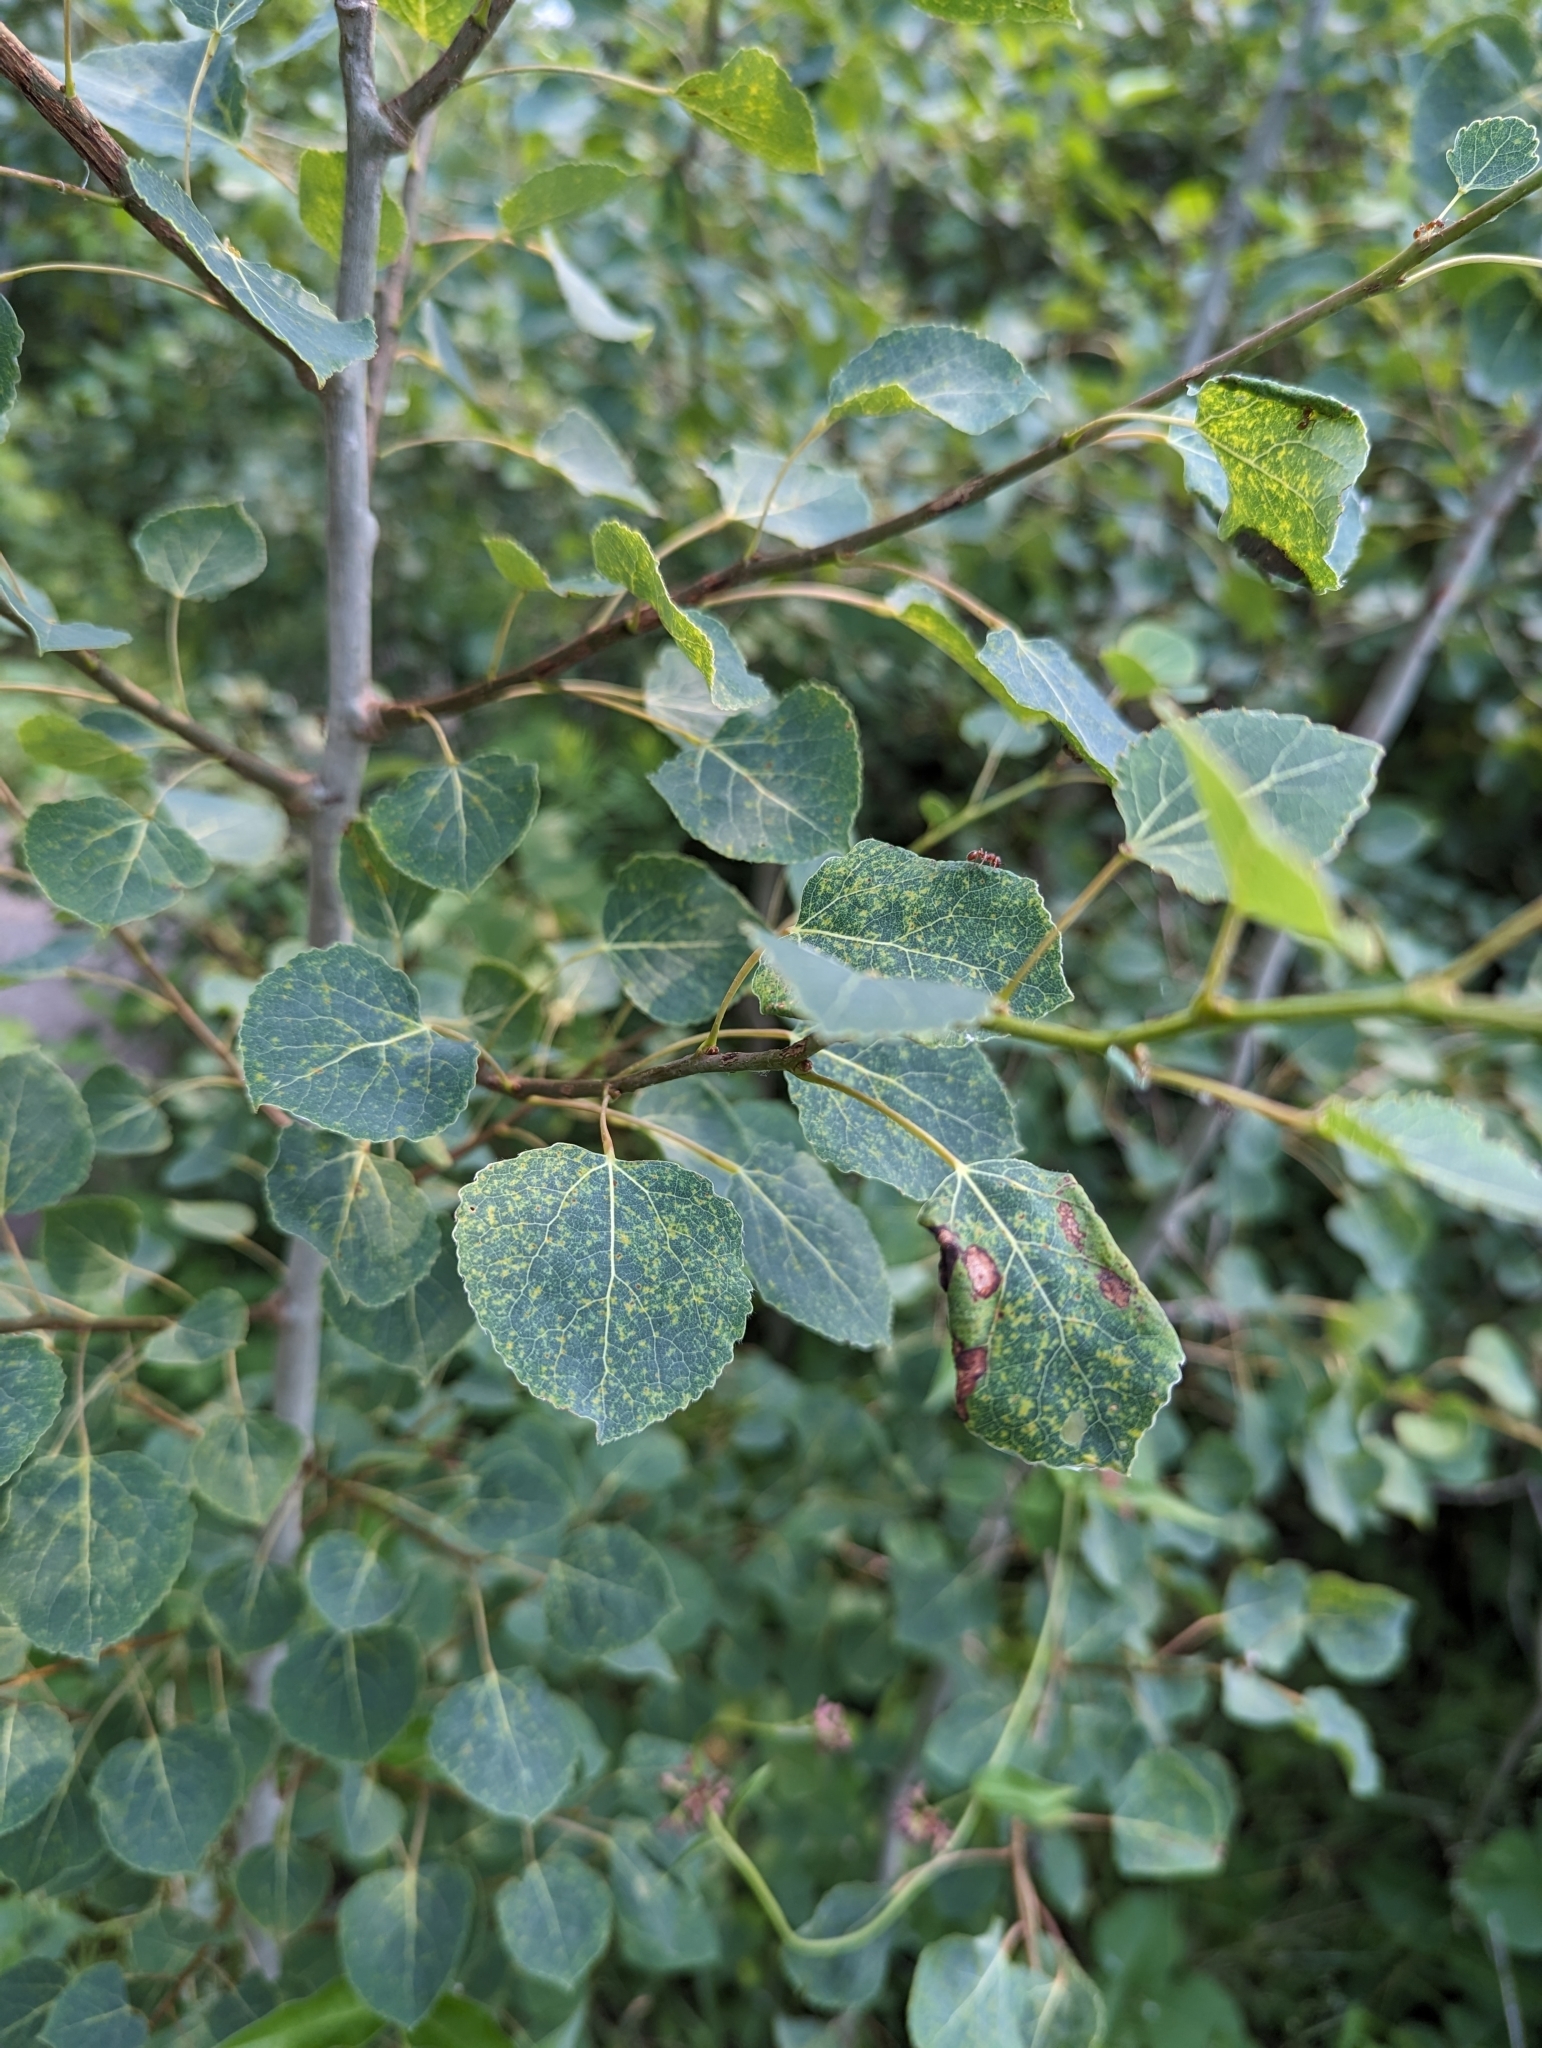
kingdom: Plantae
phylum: Tracheophyta
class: Magnoliopsida
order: Malpighiales
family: Salicaceae
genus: Populus
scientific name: Populus tremuloides
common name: Quaking aspen
